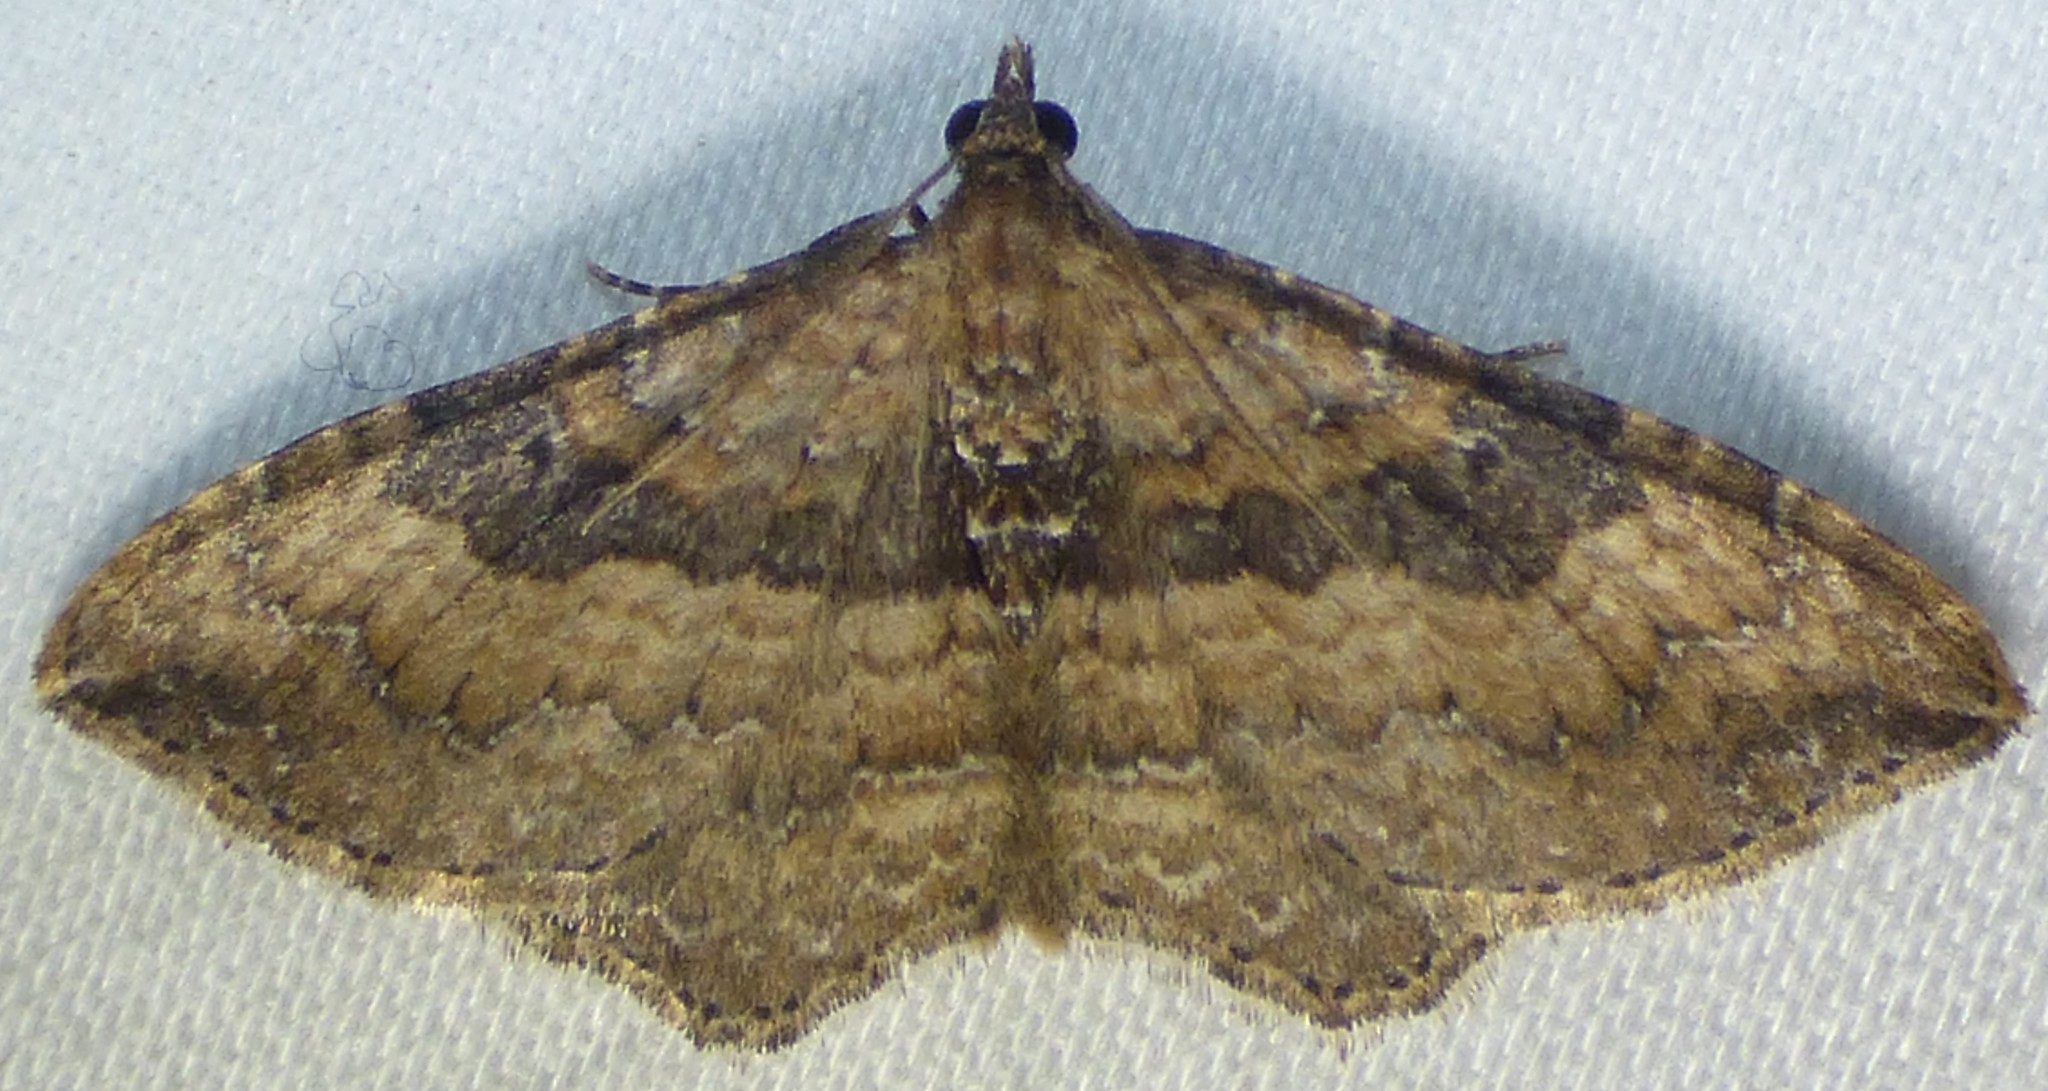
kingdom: Animalia
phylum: Arthropoda
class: Insecta
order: Lepidoptera
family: Geometridae
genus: Orthonama
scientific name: Orthonama obstipata
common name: The gem
